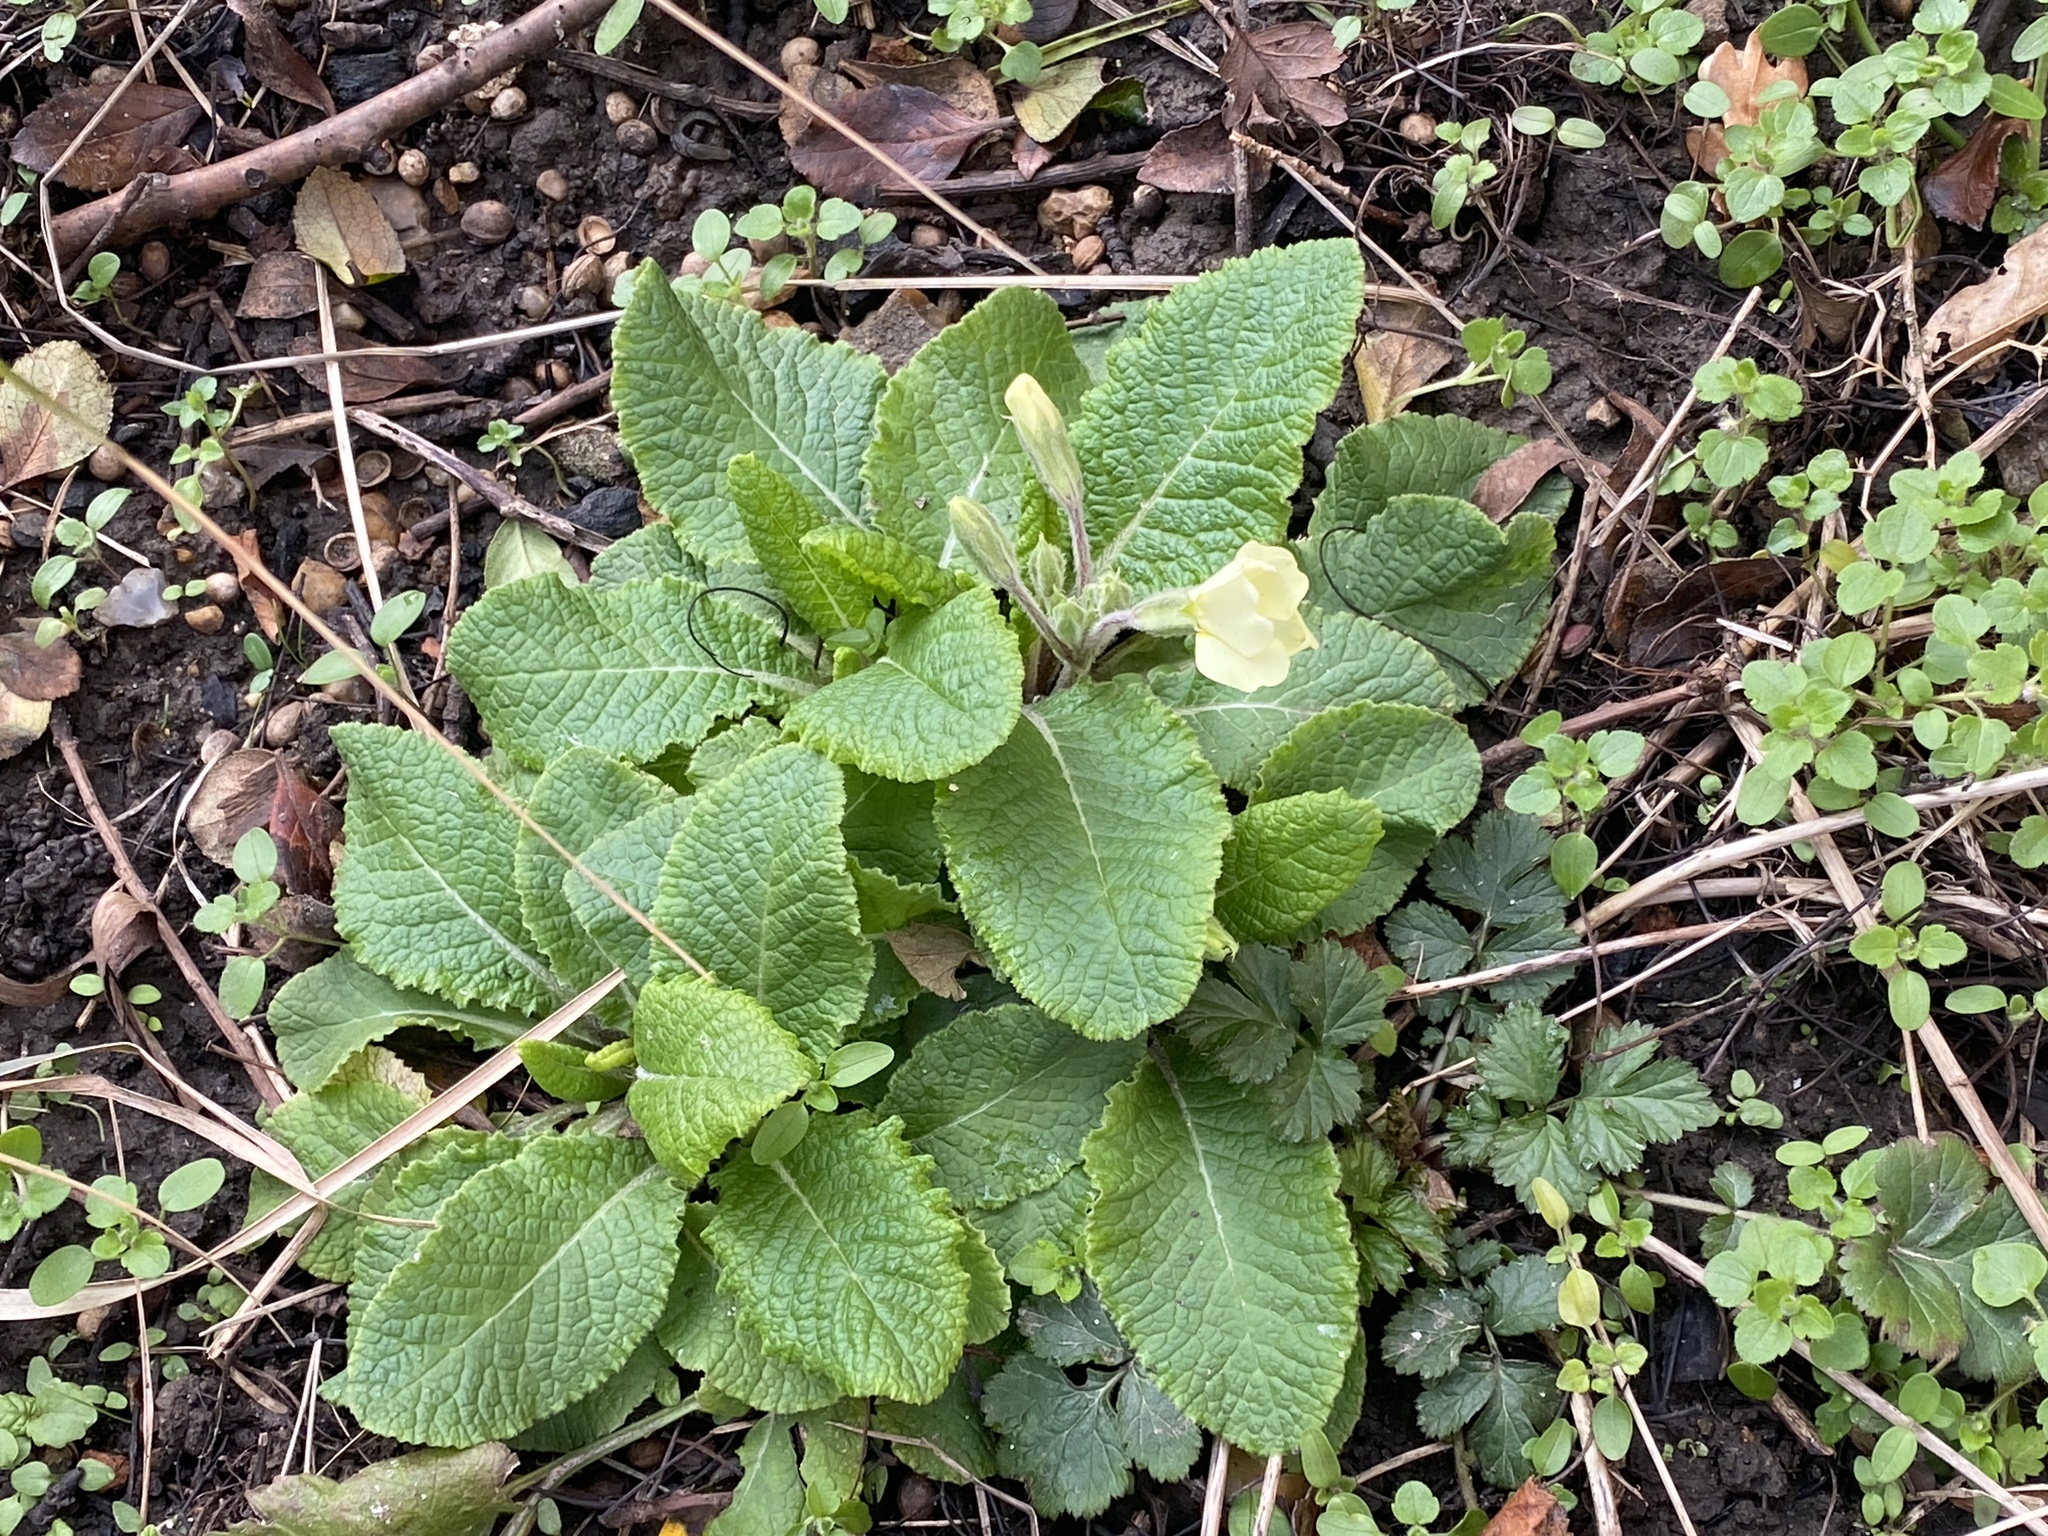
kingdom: Plantae
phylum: Tracheophyta
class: Magnoliopsida
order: Ericales
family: Primulaceae
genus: Primula
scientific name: Primula vulgaris
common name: Primrose
